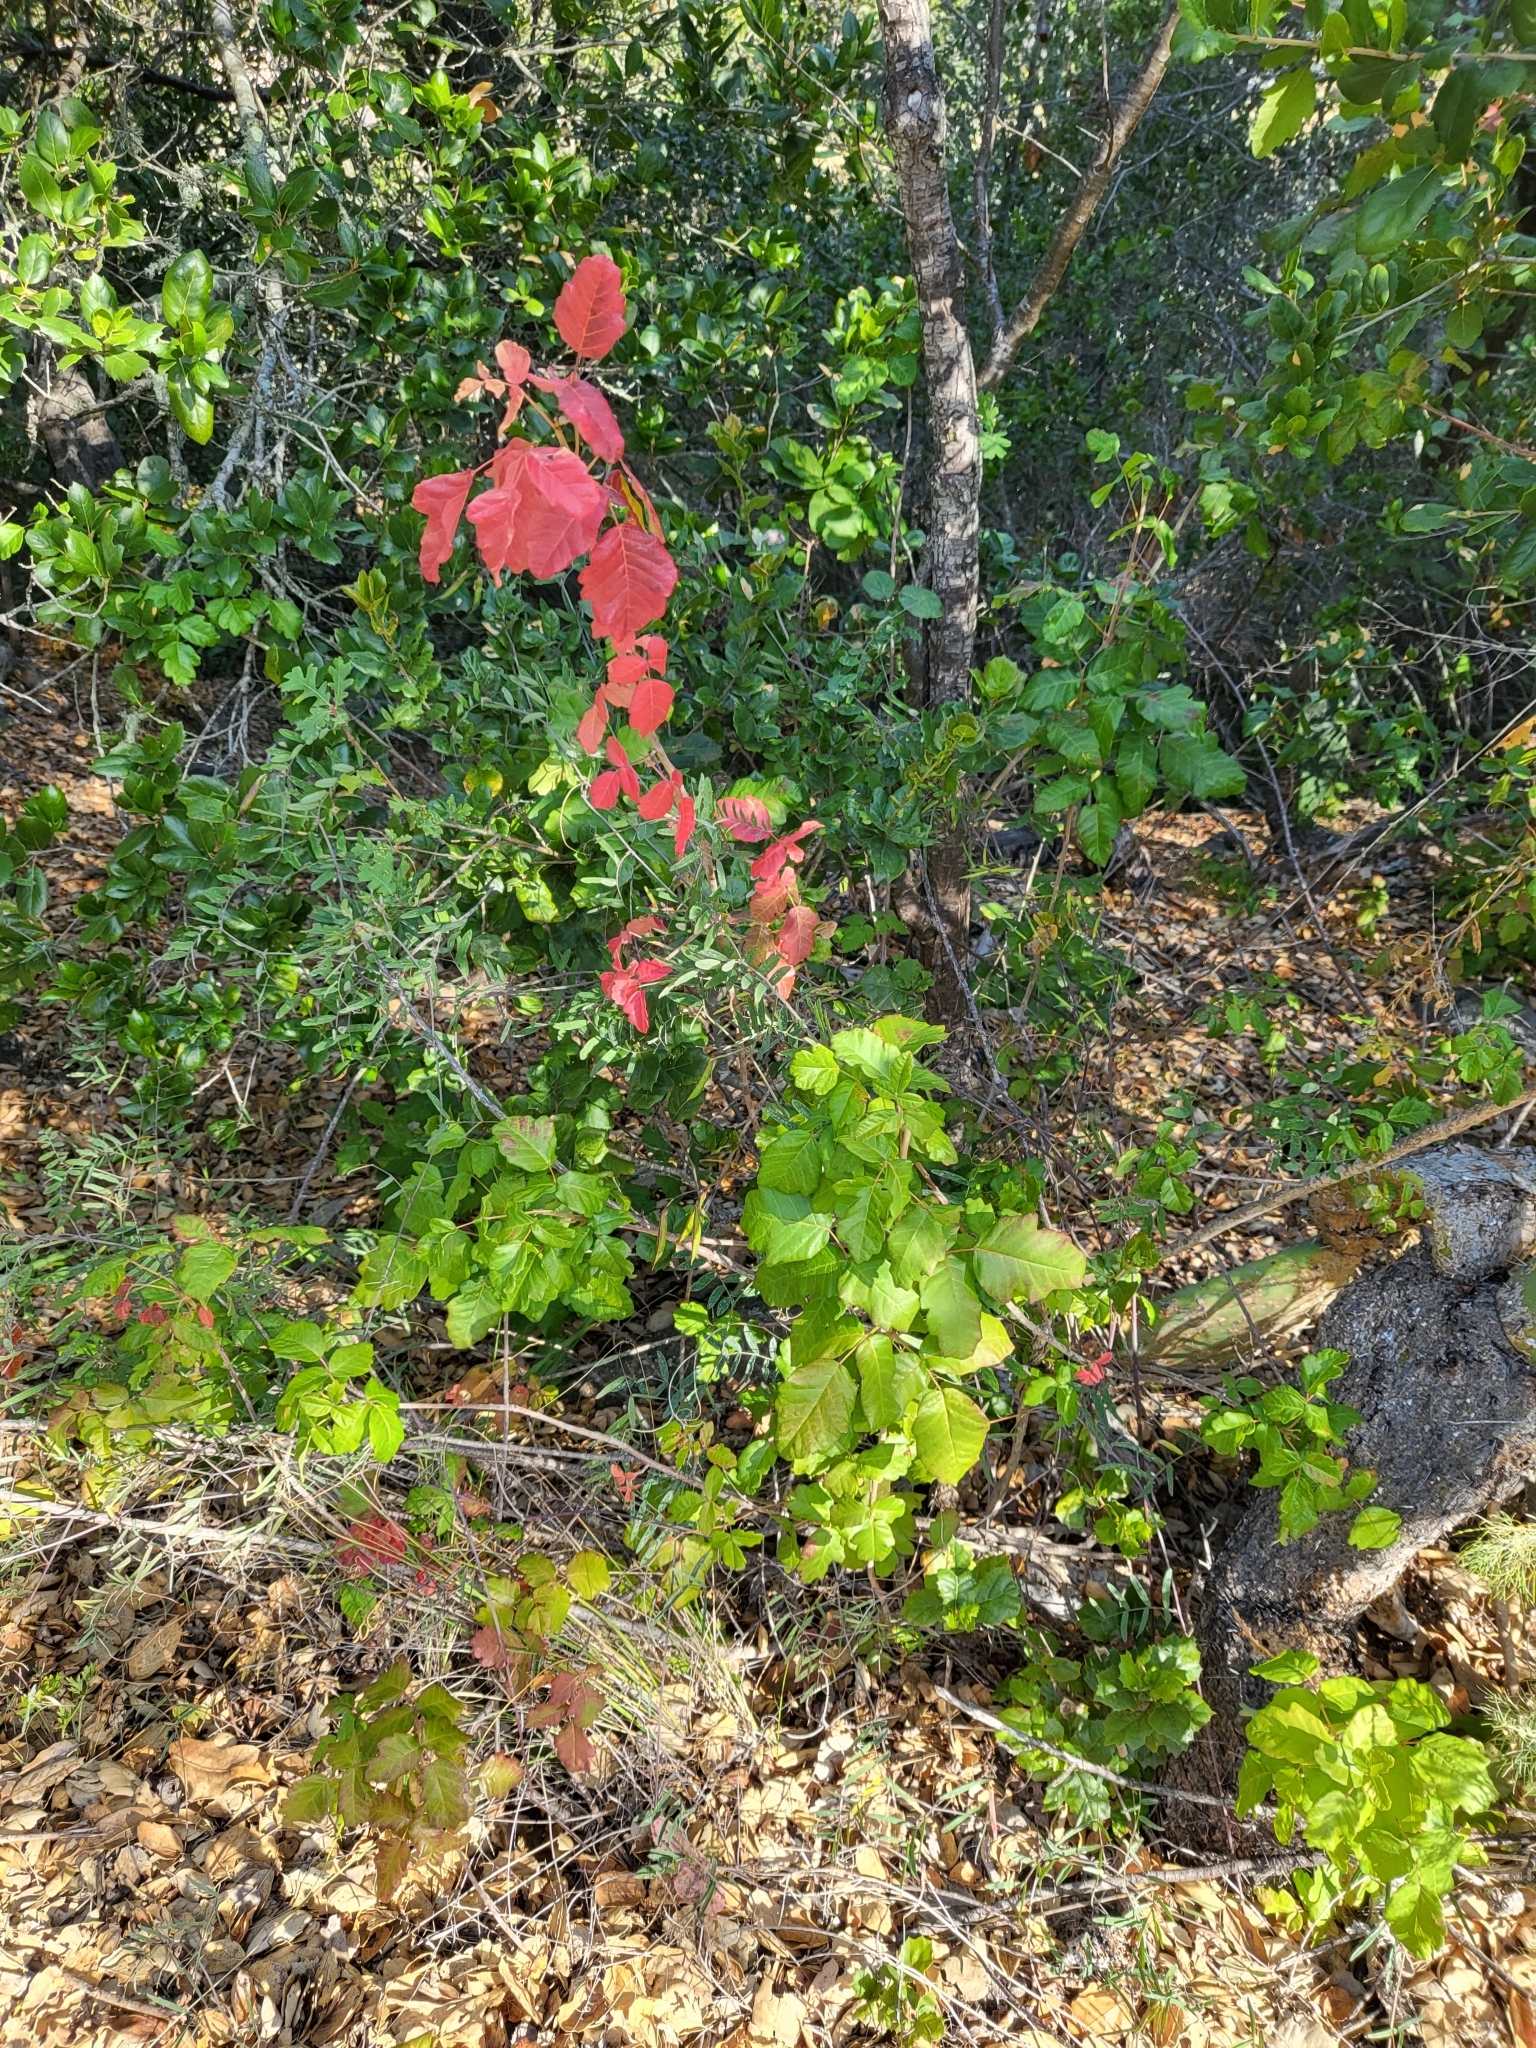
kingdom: Plantae
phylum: Tracheophyta
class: Magnoliopsida
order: Sapindales
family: Anacardiaceae
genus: Toxicodendron
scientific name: Toxicodendron diversilobum
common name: Pacific poison-oak
